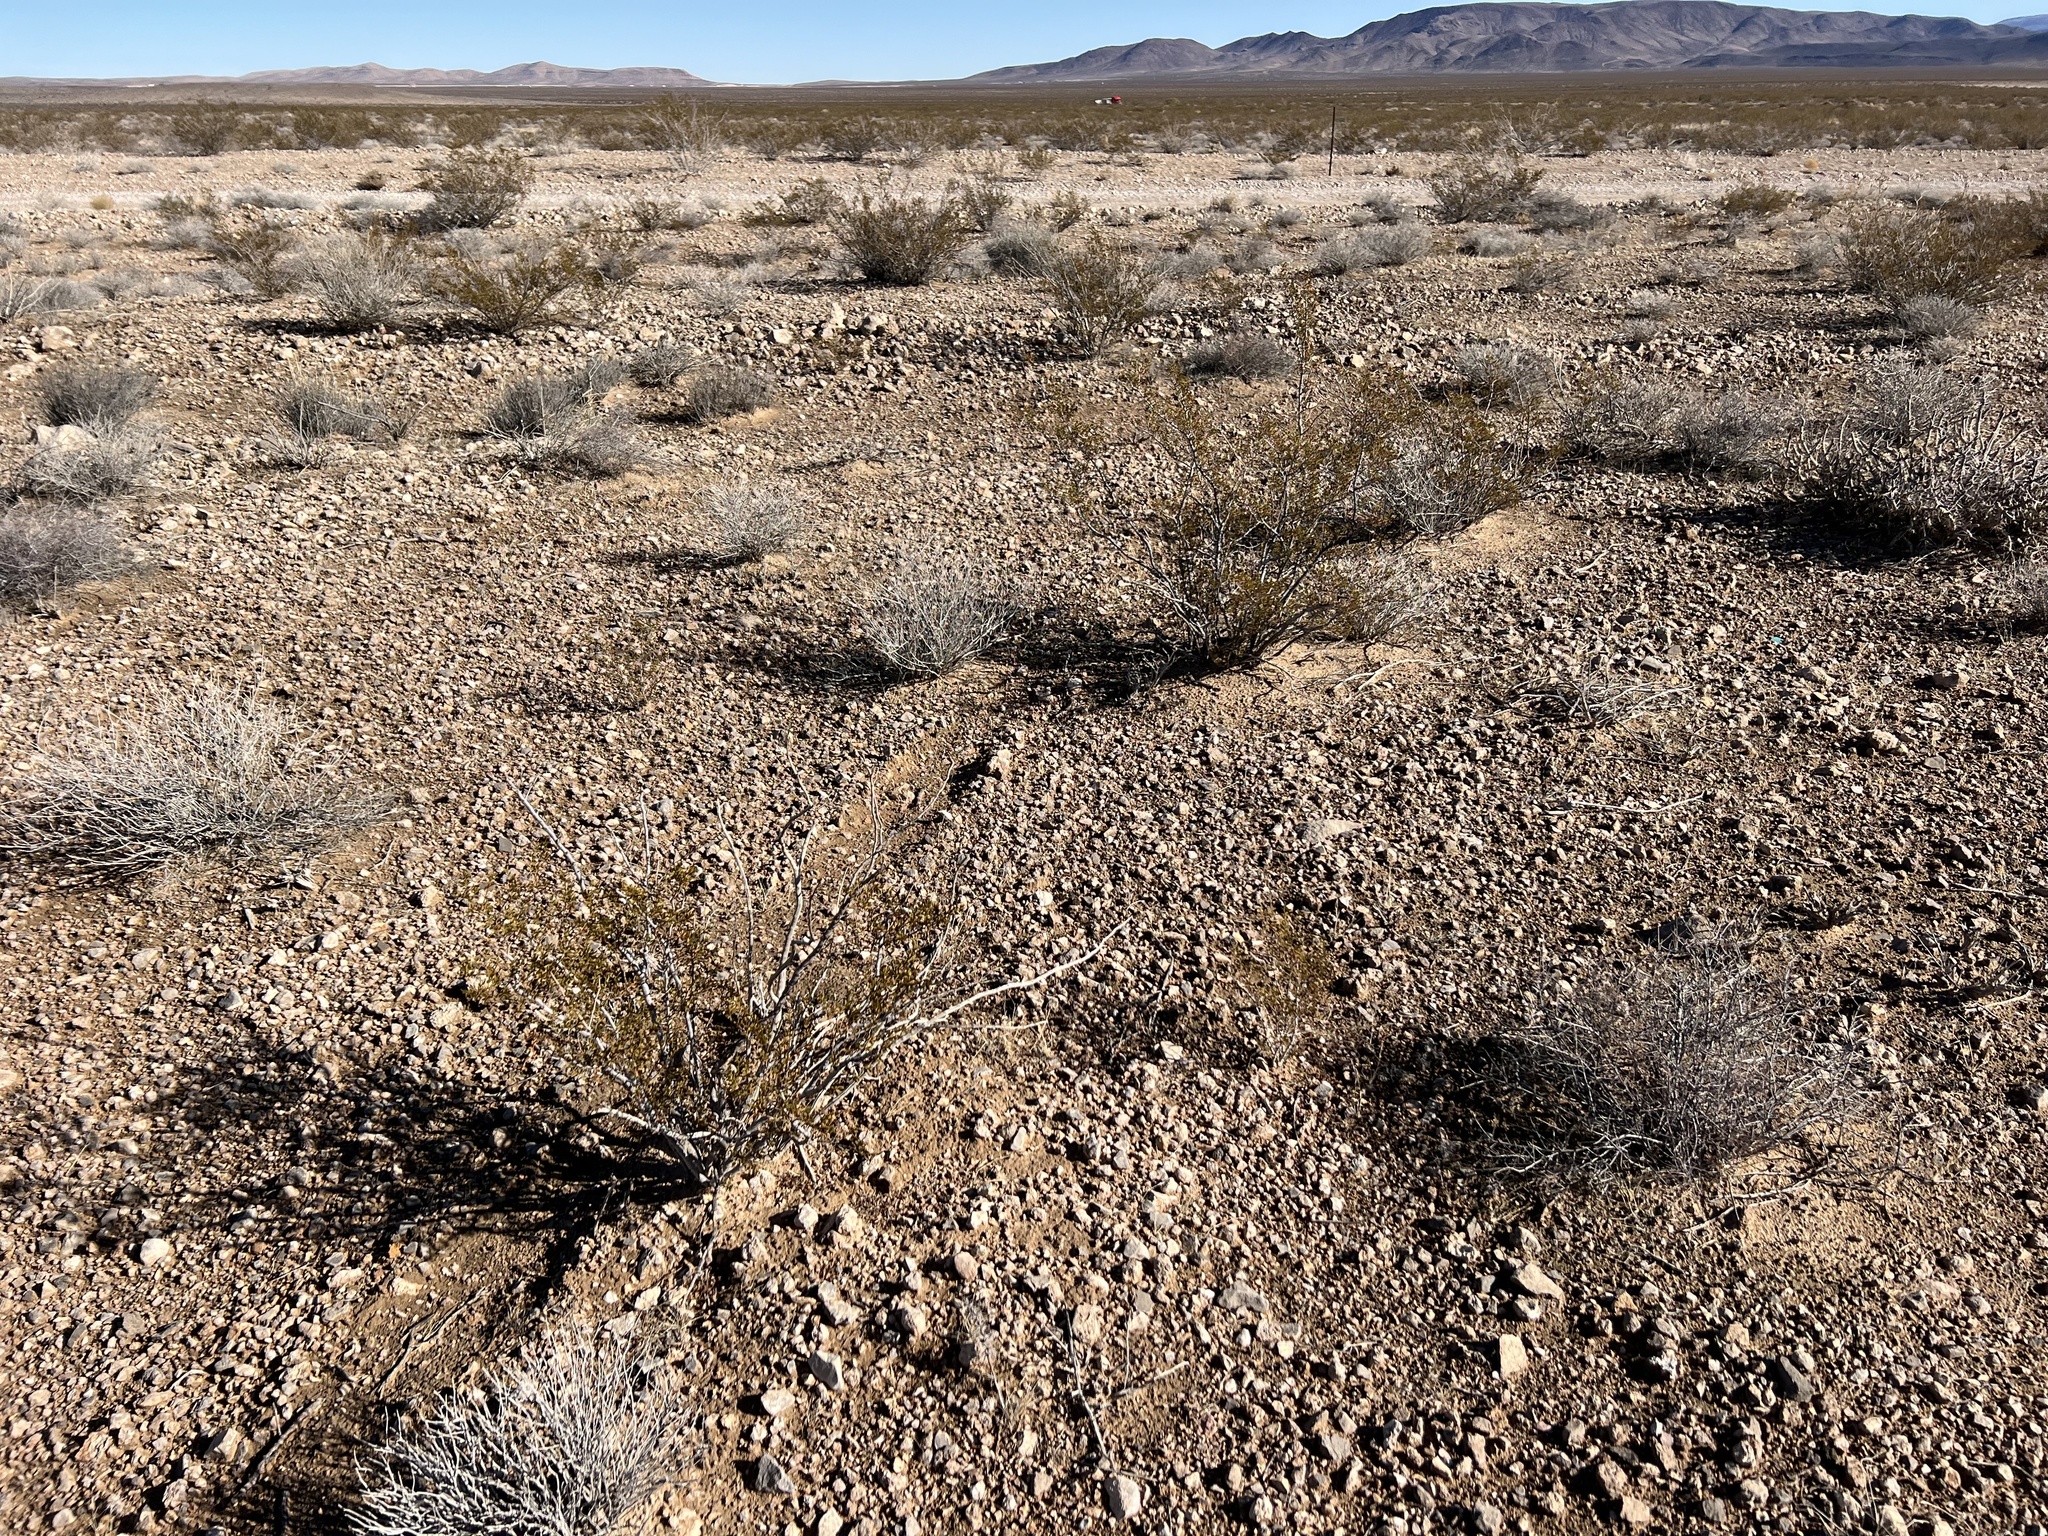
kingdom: Plantae
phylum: Tracheophyta
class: Magnoliopsida
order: Zygophyllales
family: Zygophyllaceae
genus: Larrea
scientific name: Larrea tridentata
